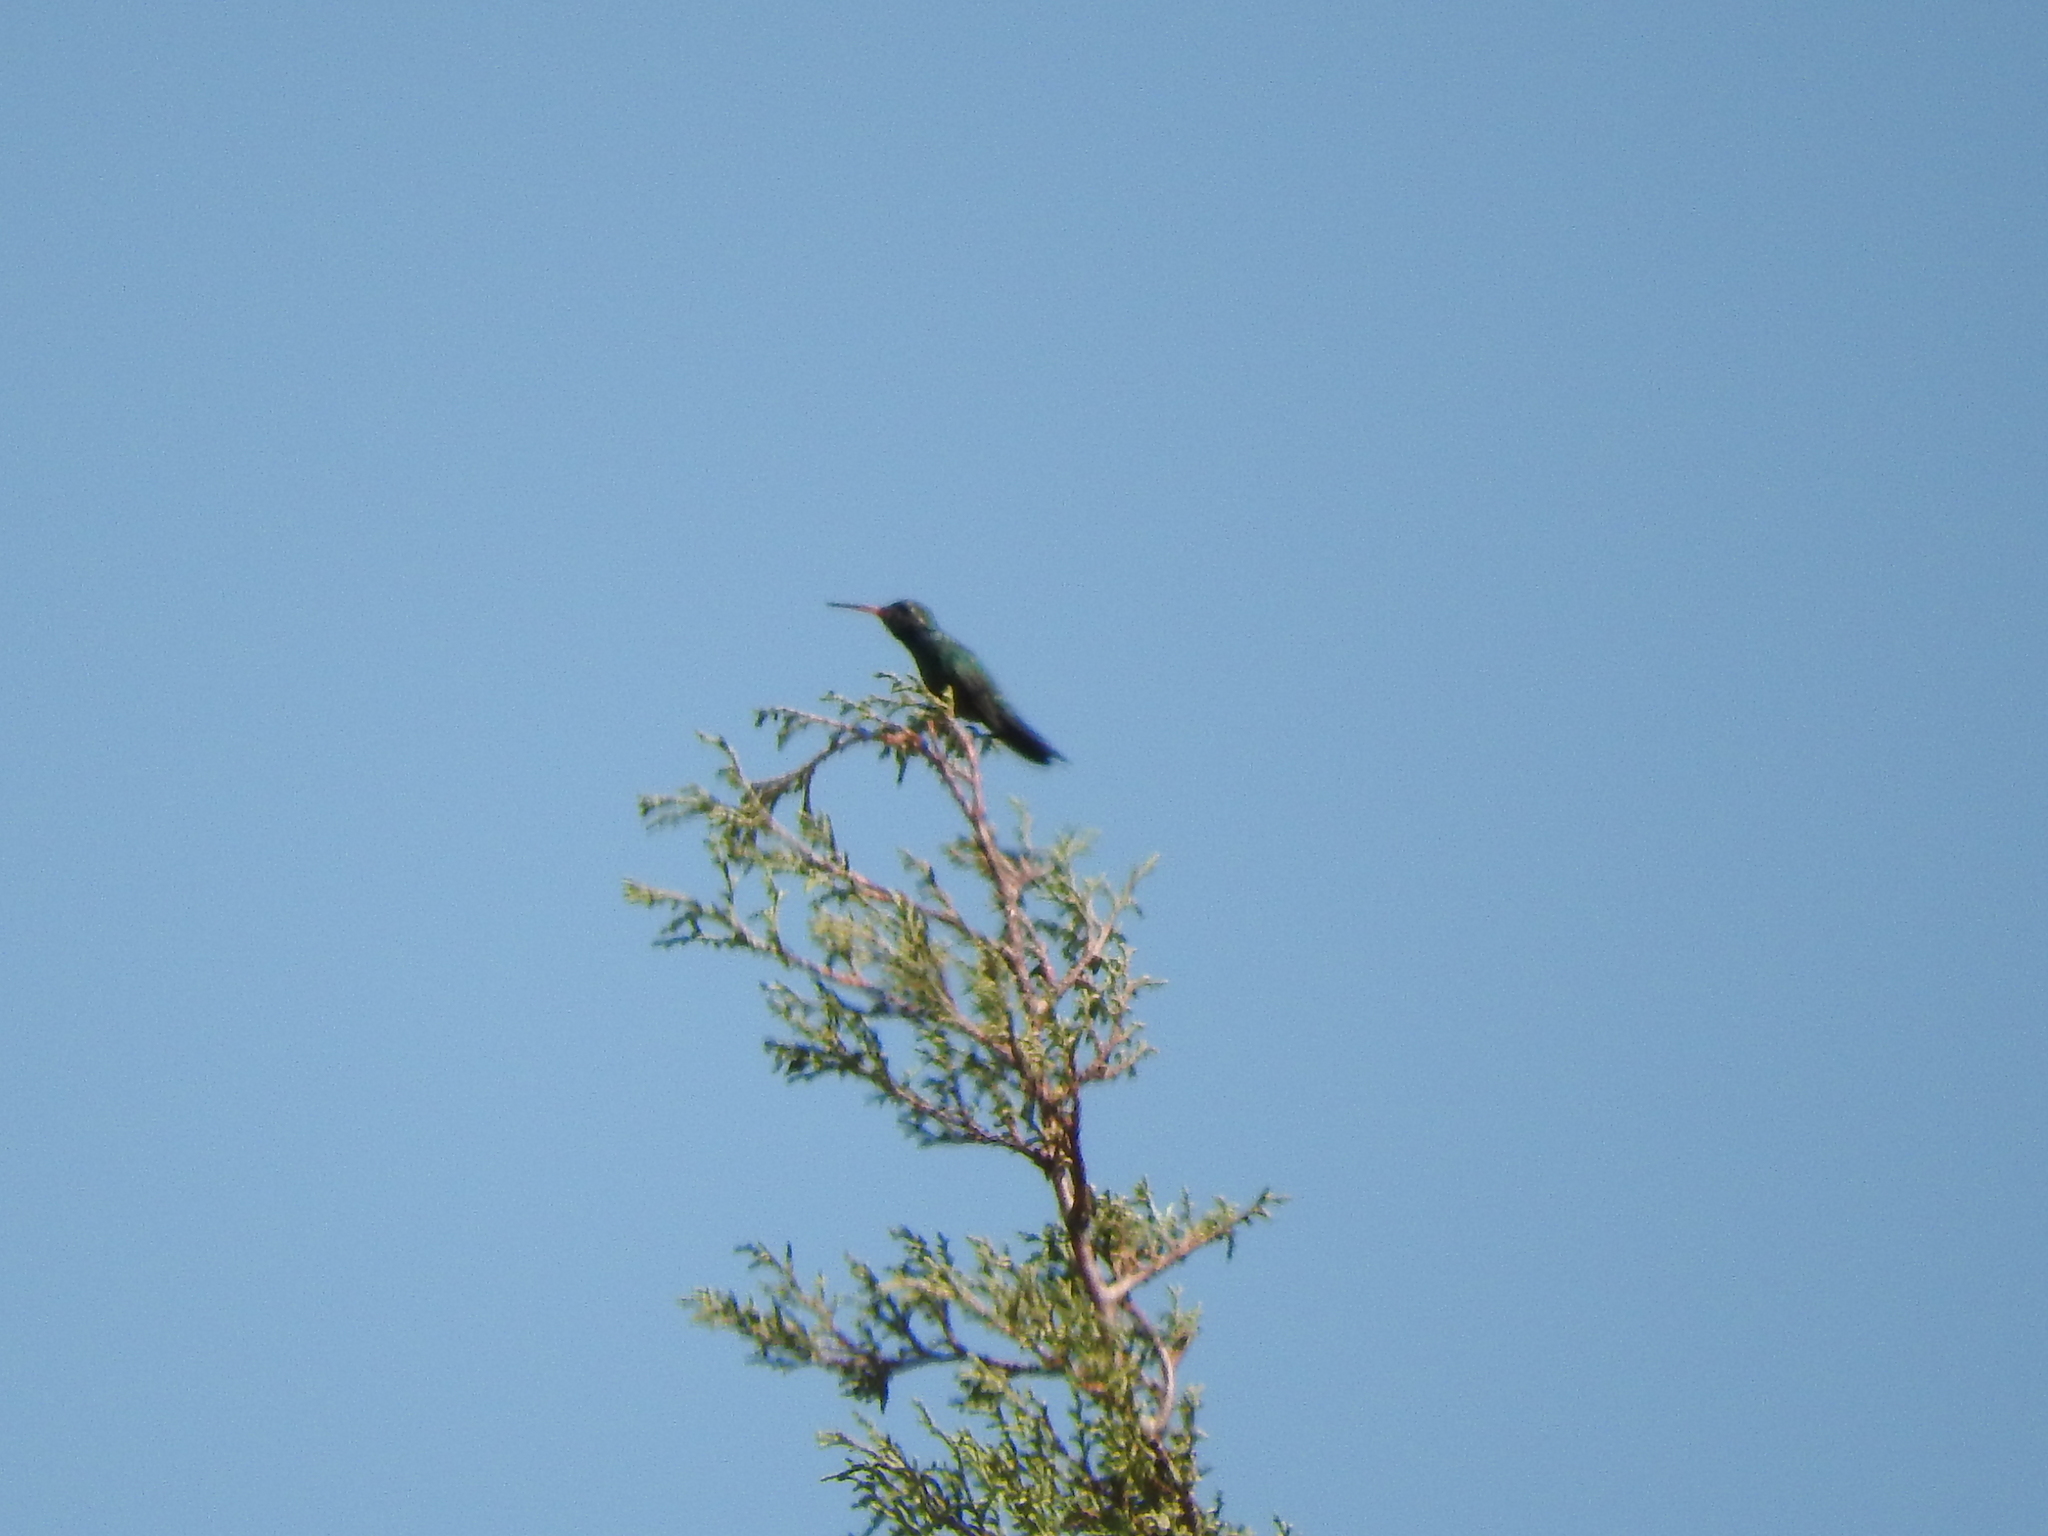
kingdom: Animalia
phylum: Chordata
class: Aves
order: Apodiformes
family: Trochilidae
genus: Cynanthus
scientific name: Cynanthus latirostris
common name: Broad-billed hummingbird
